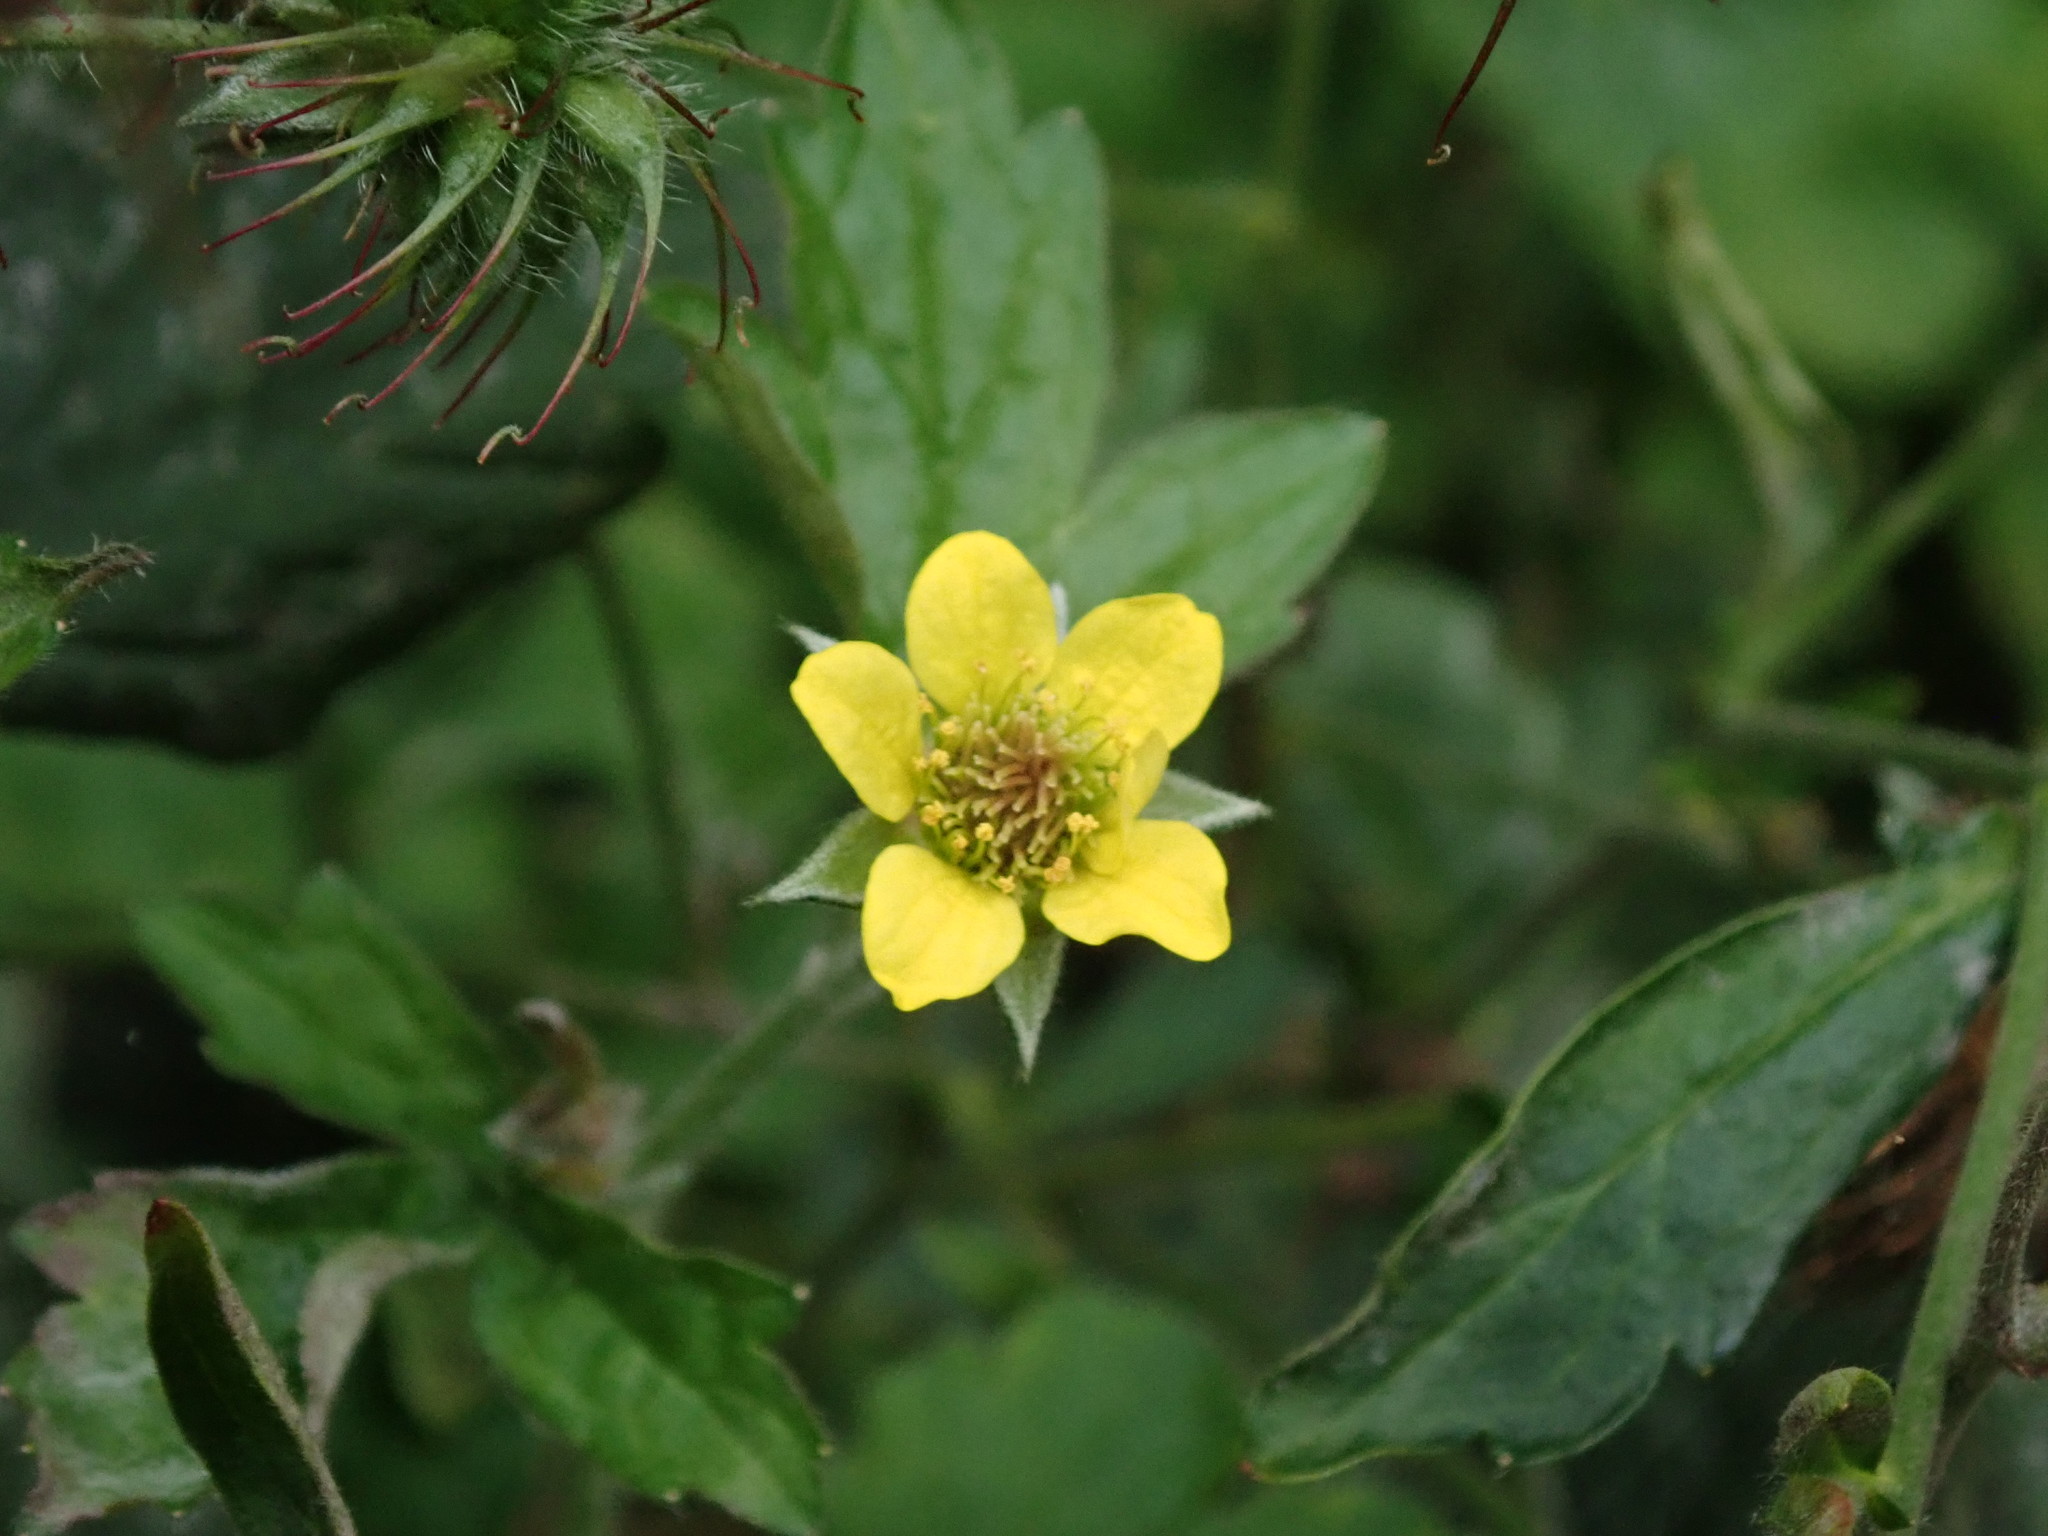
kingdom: Plantae
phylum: Tracheophyta
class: Magnoliopsida
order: Rosales
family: Rosaceae
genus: Geum
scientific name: Geum urbanum
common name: Wood avens
